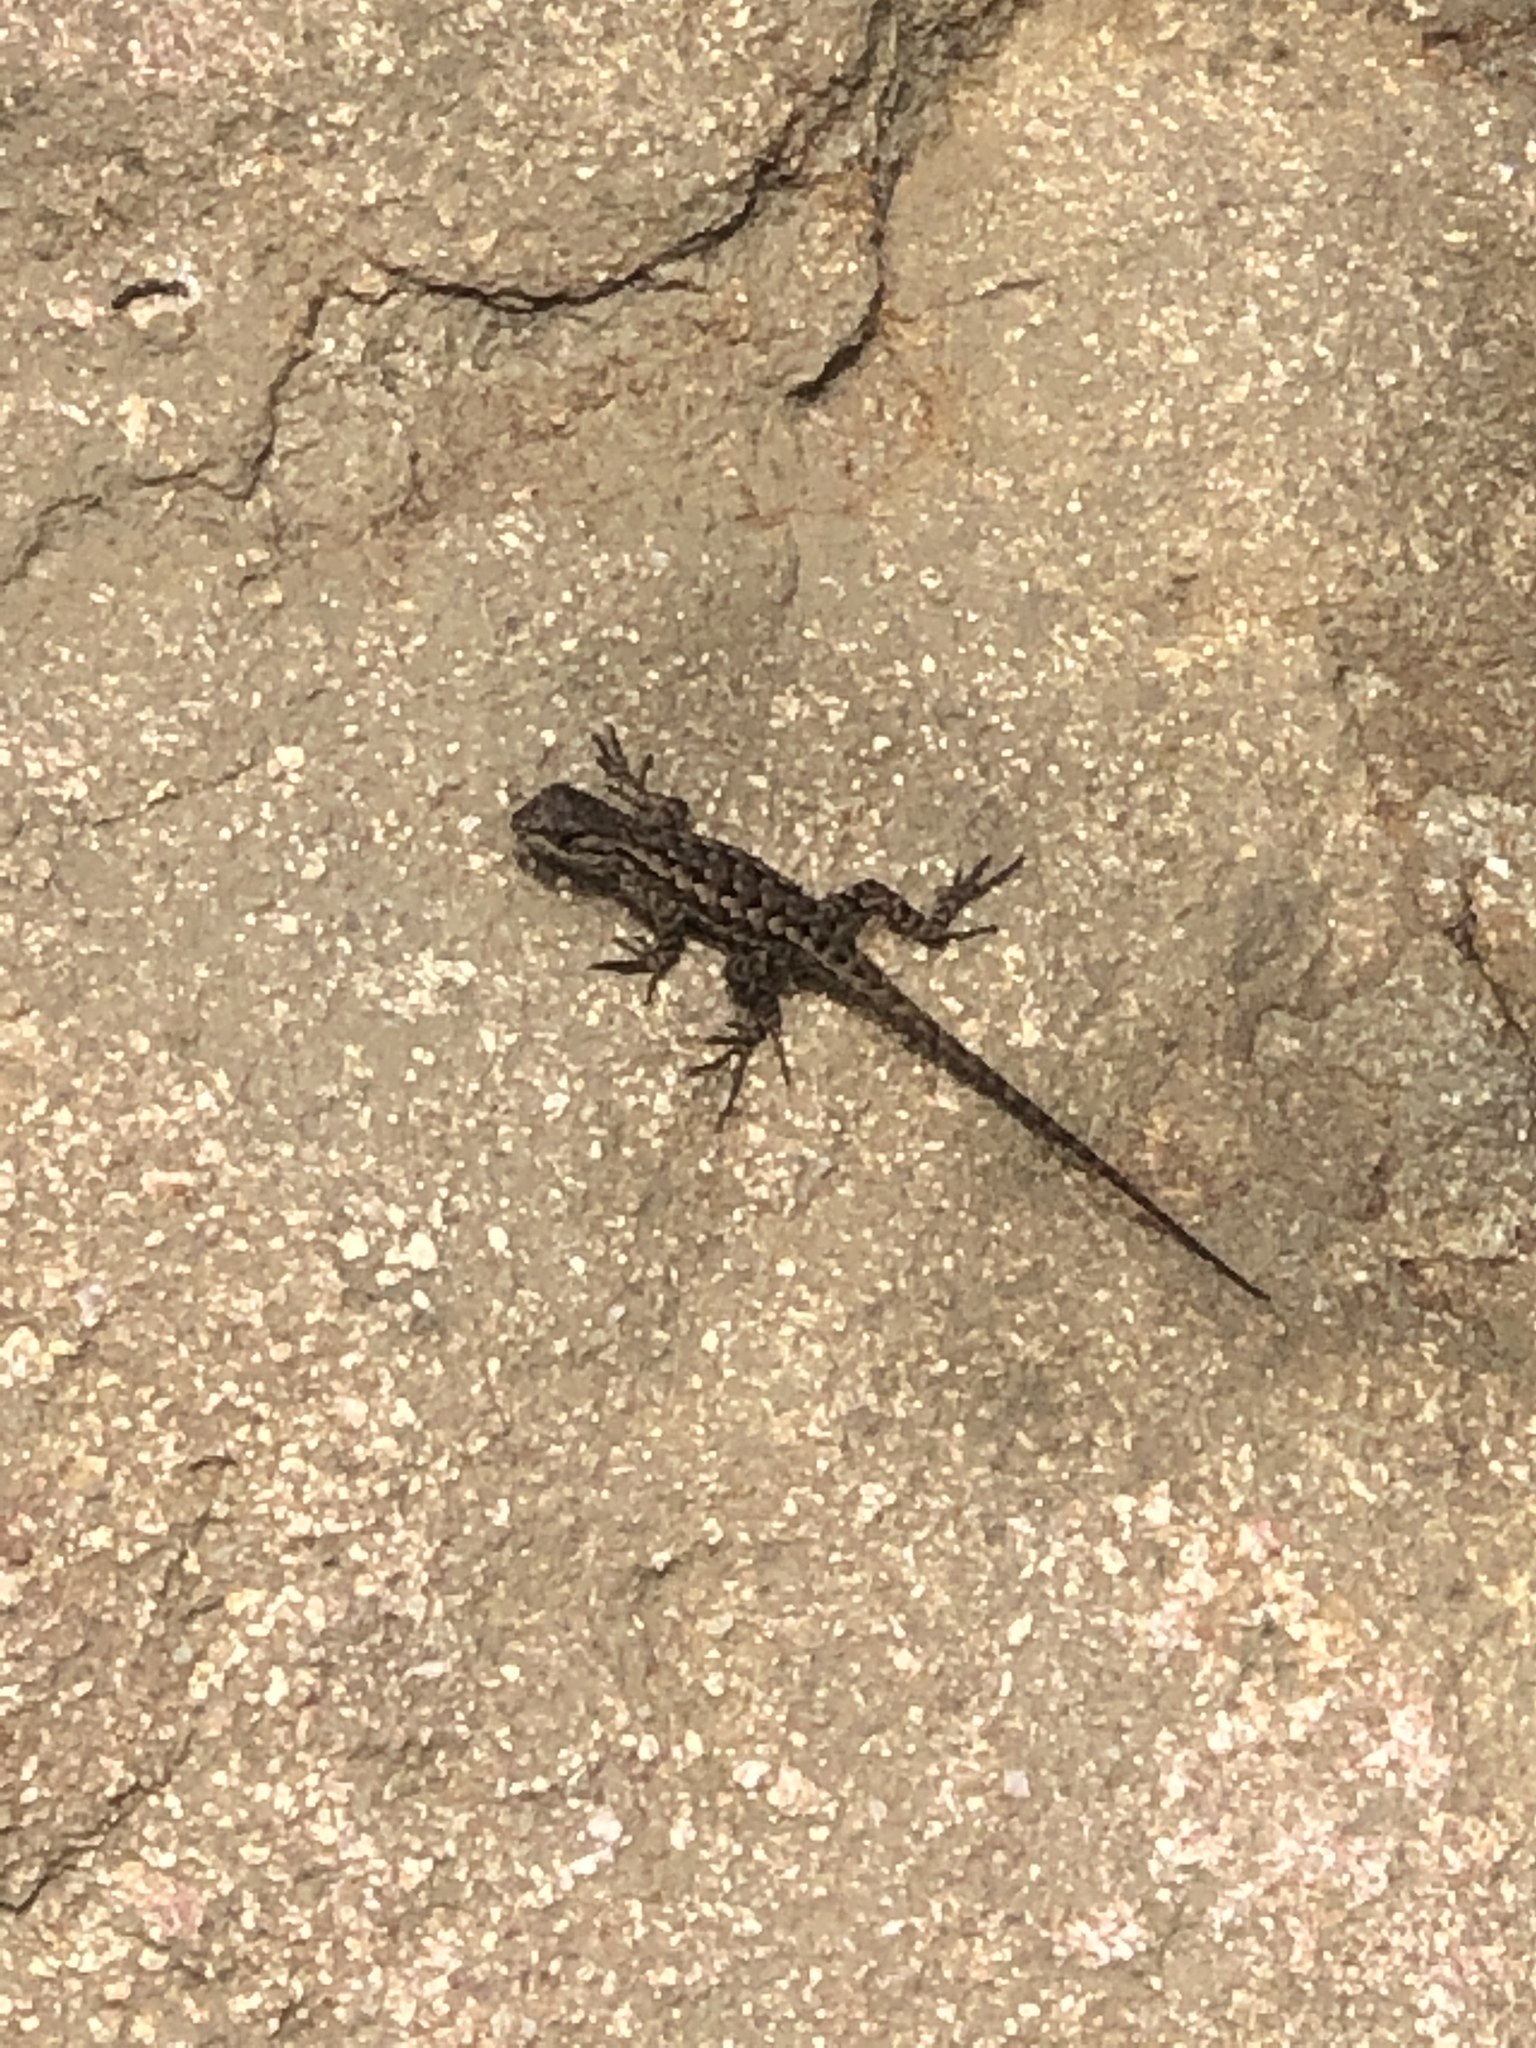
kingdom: Animalia
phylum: Chordata
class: Squamata
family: Phrynosomatidae
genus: Sceloporus
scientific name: Sceloporus occidentalis
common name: Western fence lizard
